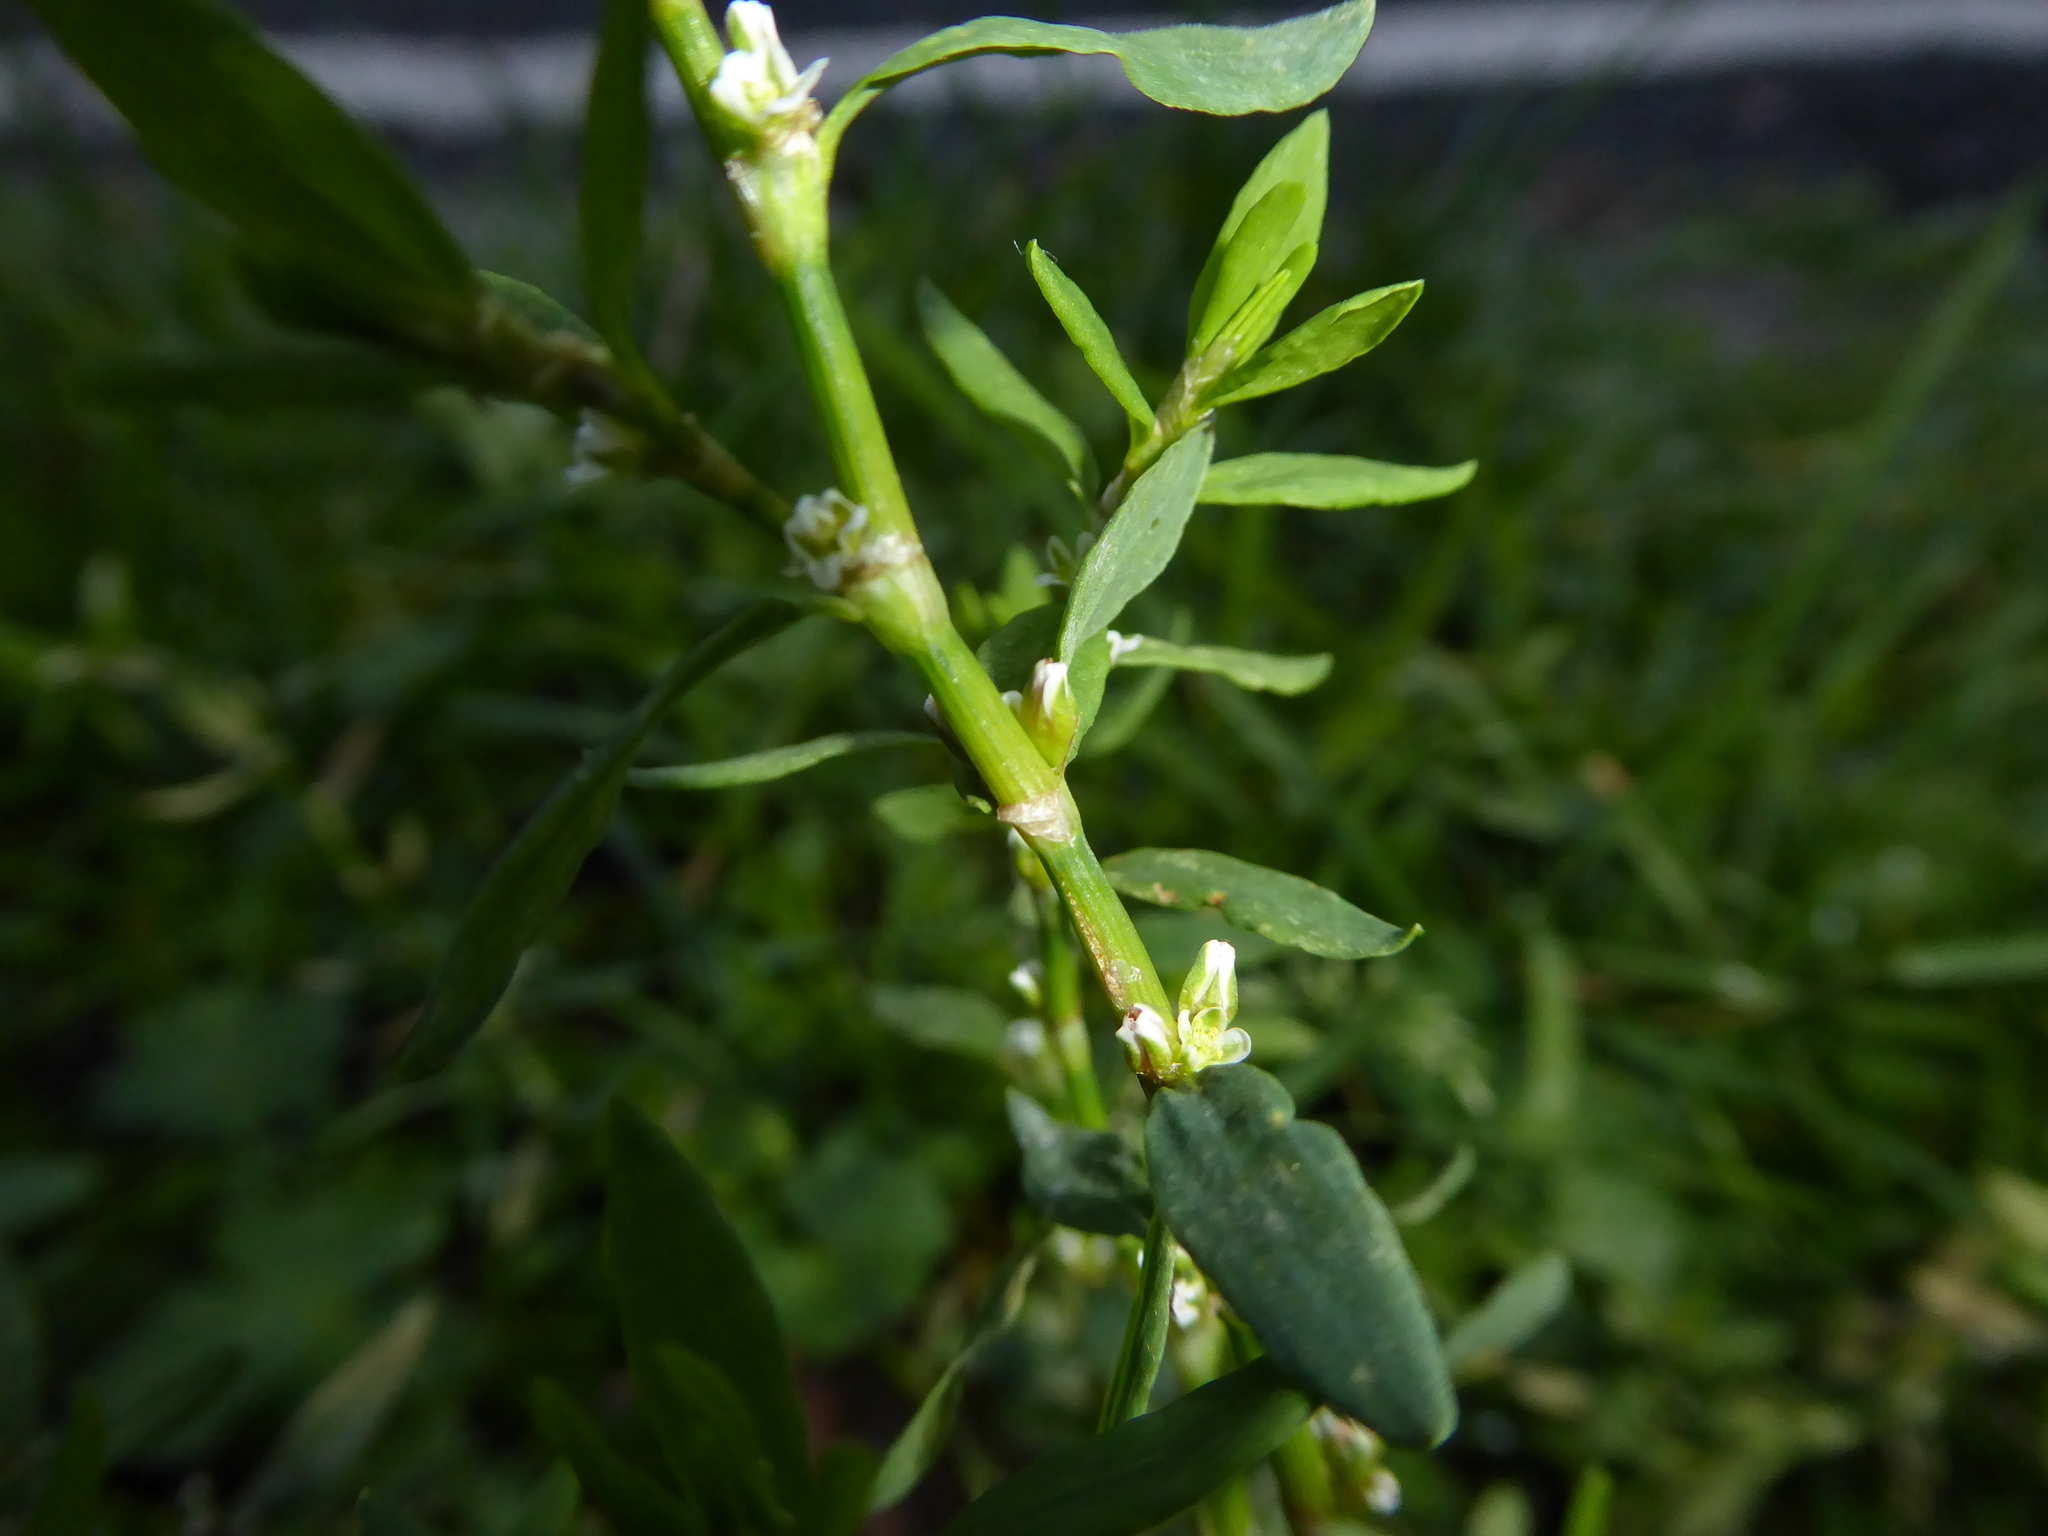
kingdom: Plantae
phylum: Tracheophyta
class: Magnoliopsida
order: Caryophyllales
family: Polygonaceae
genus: Polygonum
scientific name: Polygonum
